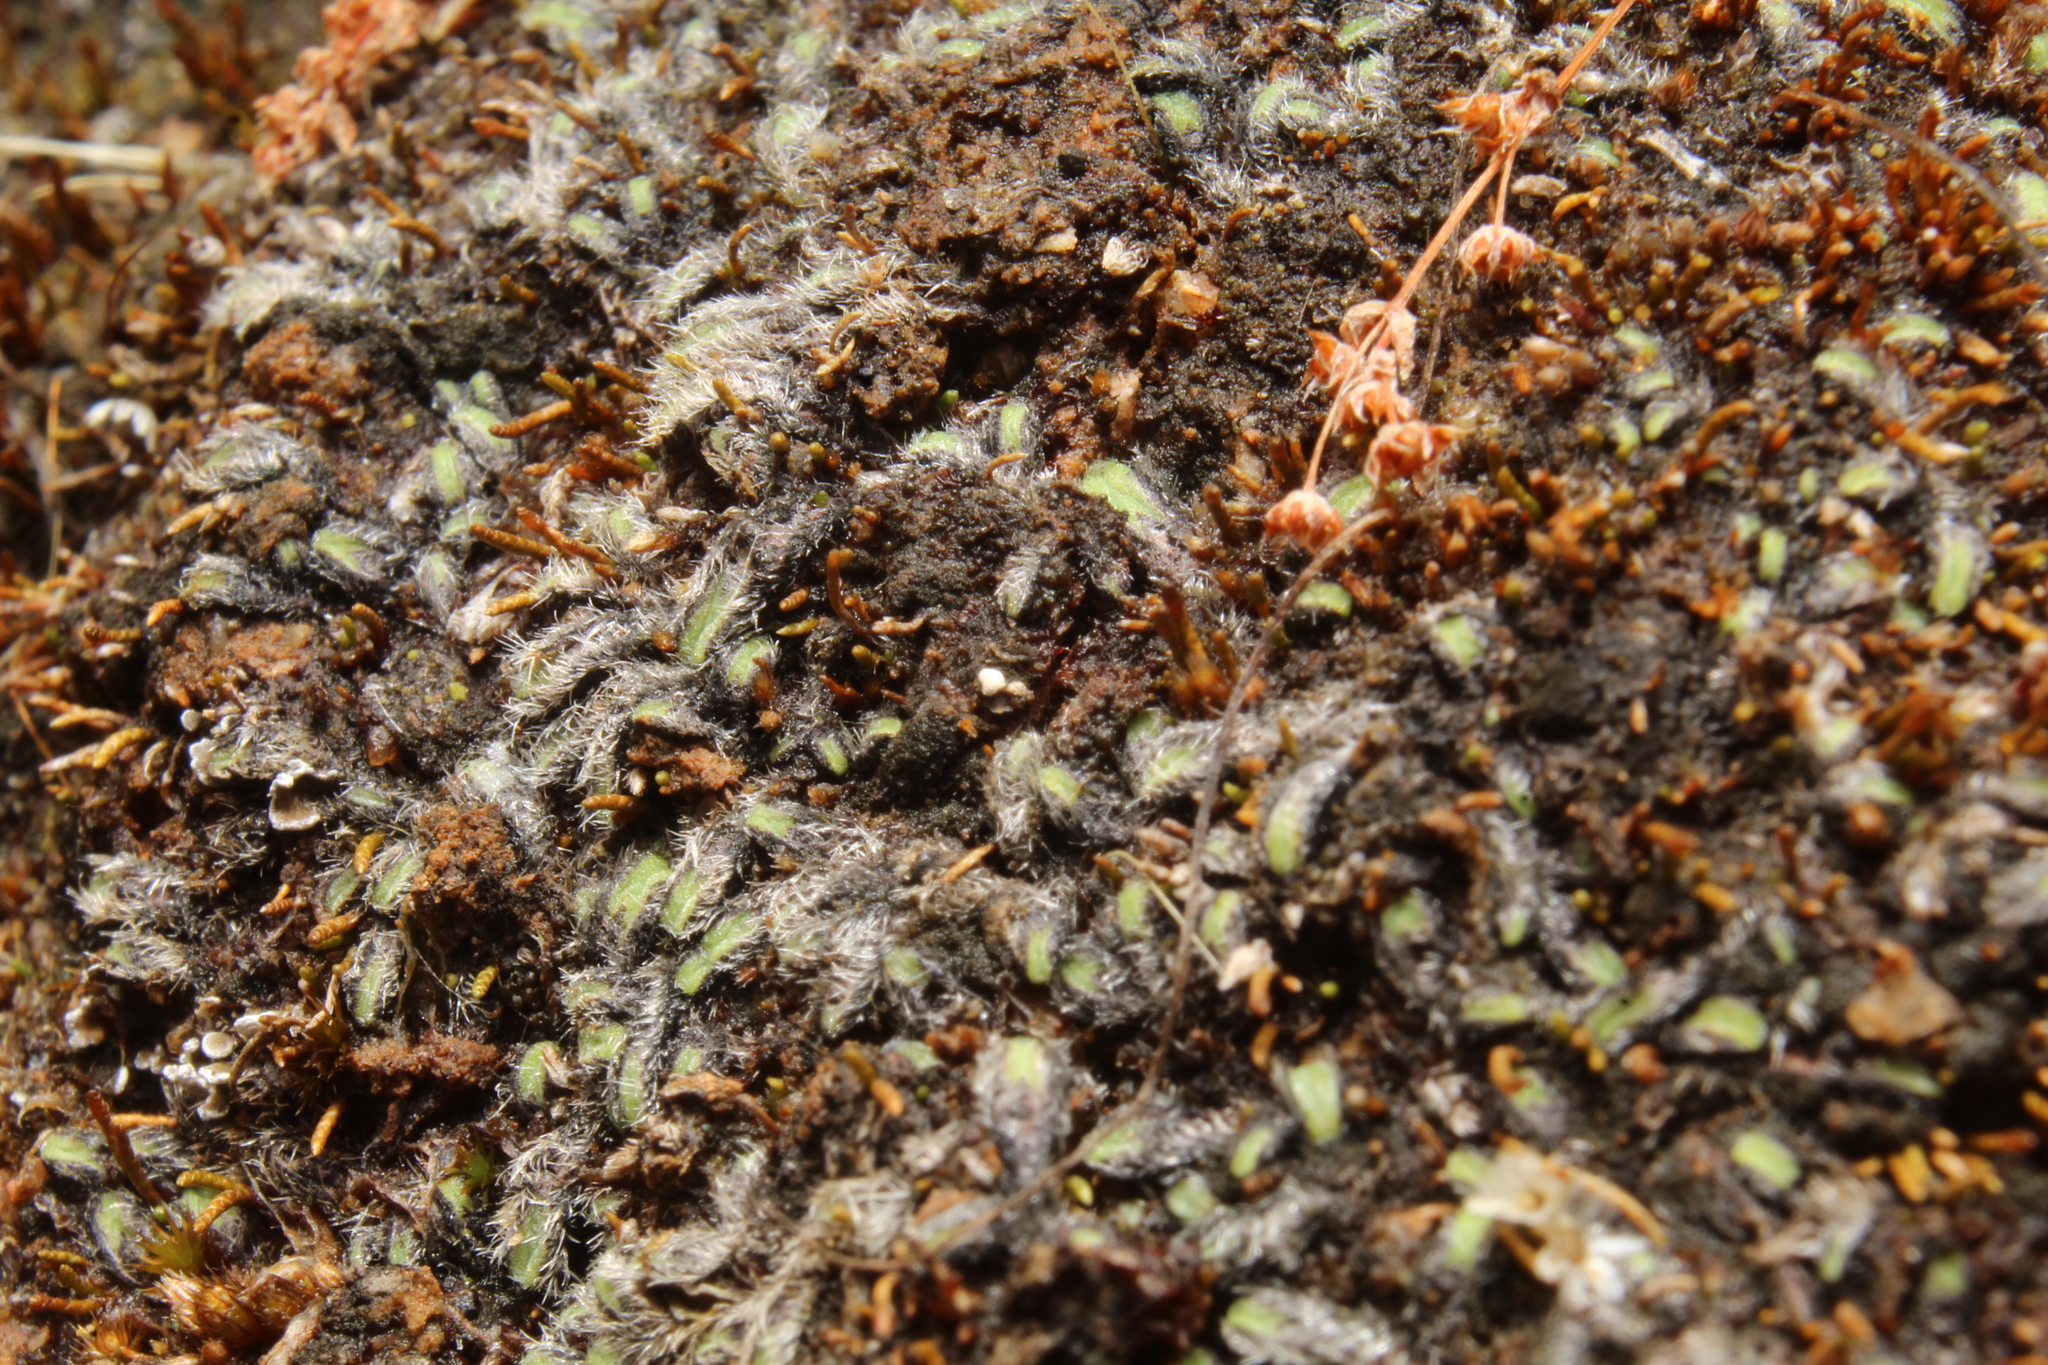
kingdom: Plantae
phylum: Marchantiophyta
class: Marchantiopsida
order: Marchantiales
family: Ricciaceae
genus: Riccia
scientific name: Riccia crinita
